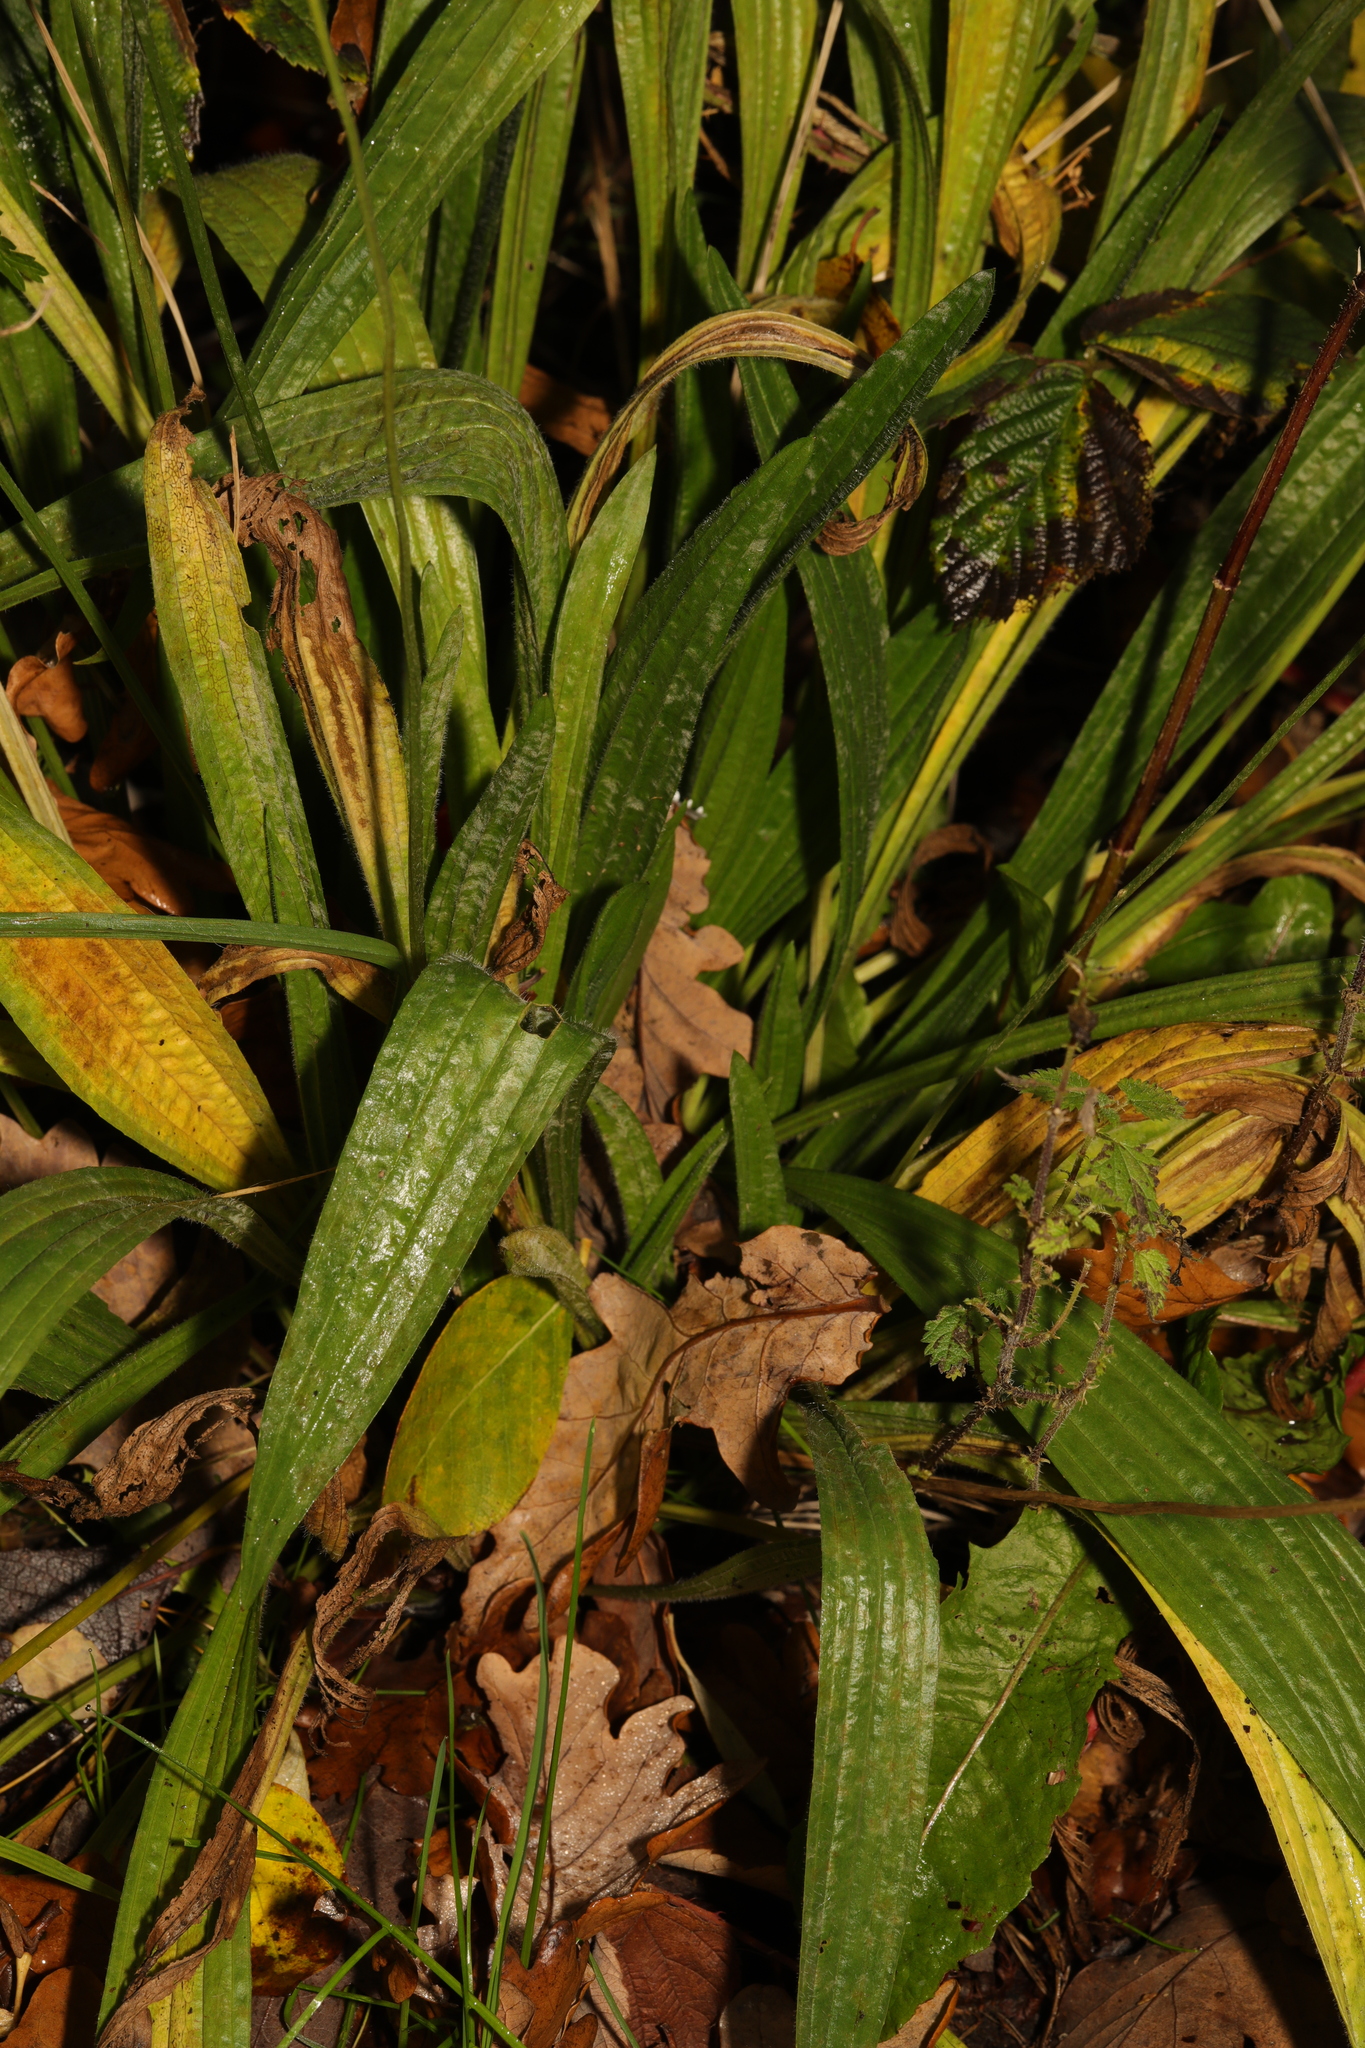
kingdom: Plantae
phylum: Tracheophyta
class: Magnoliopsida
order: Lamiales
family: Plantaginaceae
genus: Plantago
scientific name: Plantago lanceolata
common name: Ribwort plantain
